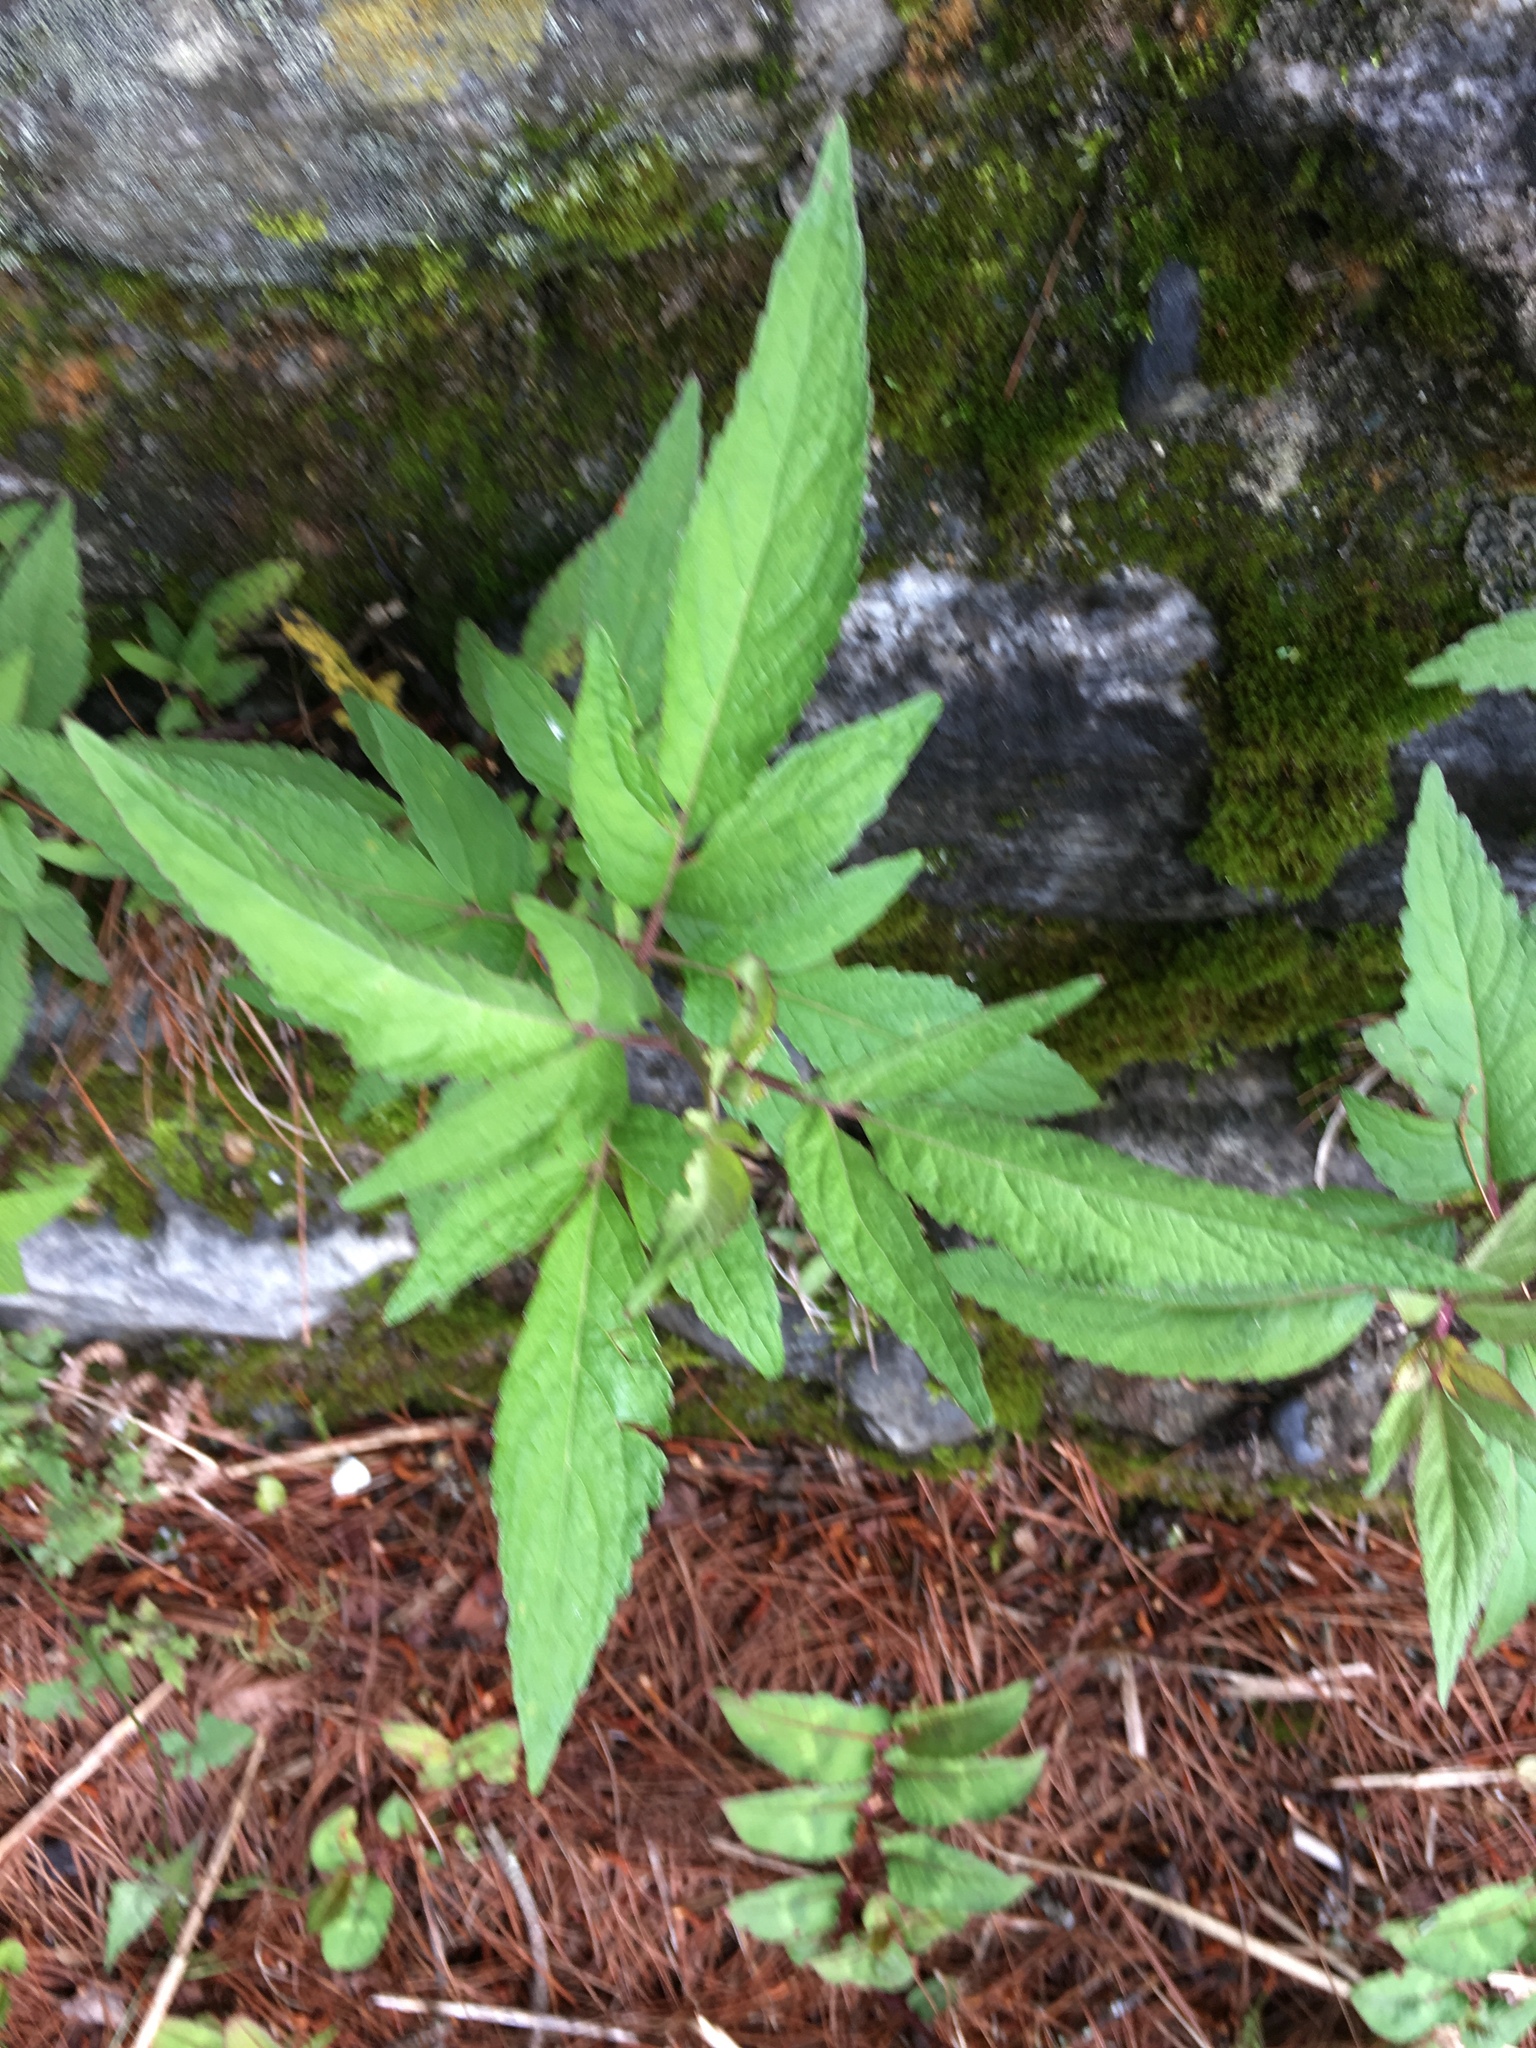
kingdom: Plantae
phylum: Tracheophyta
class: Magnoliopsida
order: Asterales
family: Asteraceae
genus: Eupatorium
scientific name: Eupatorium formosanum
